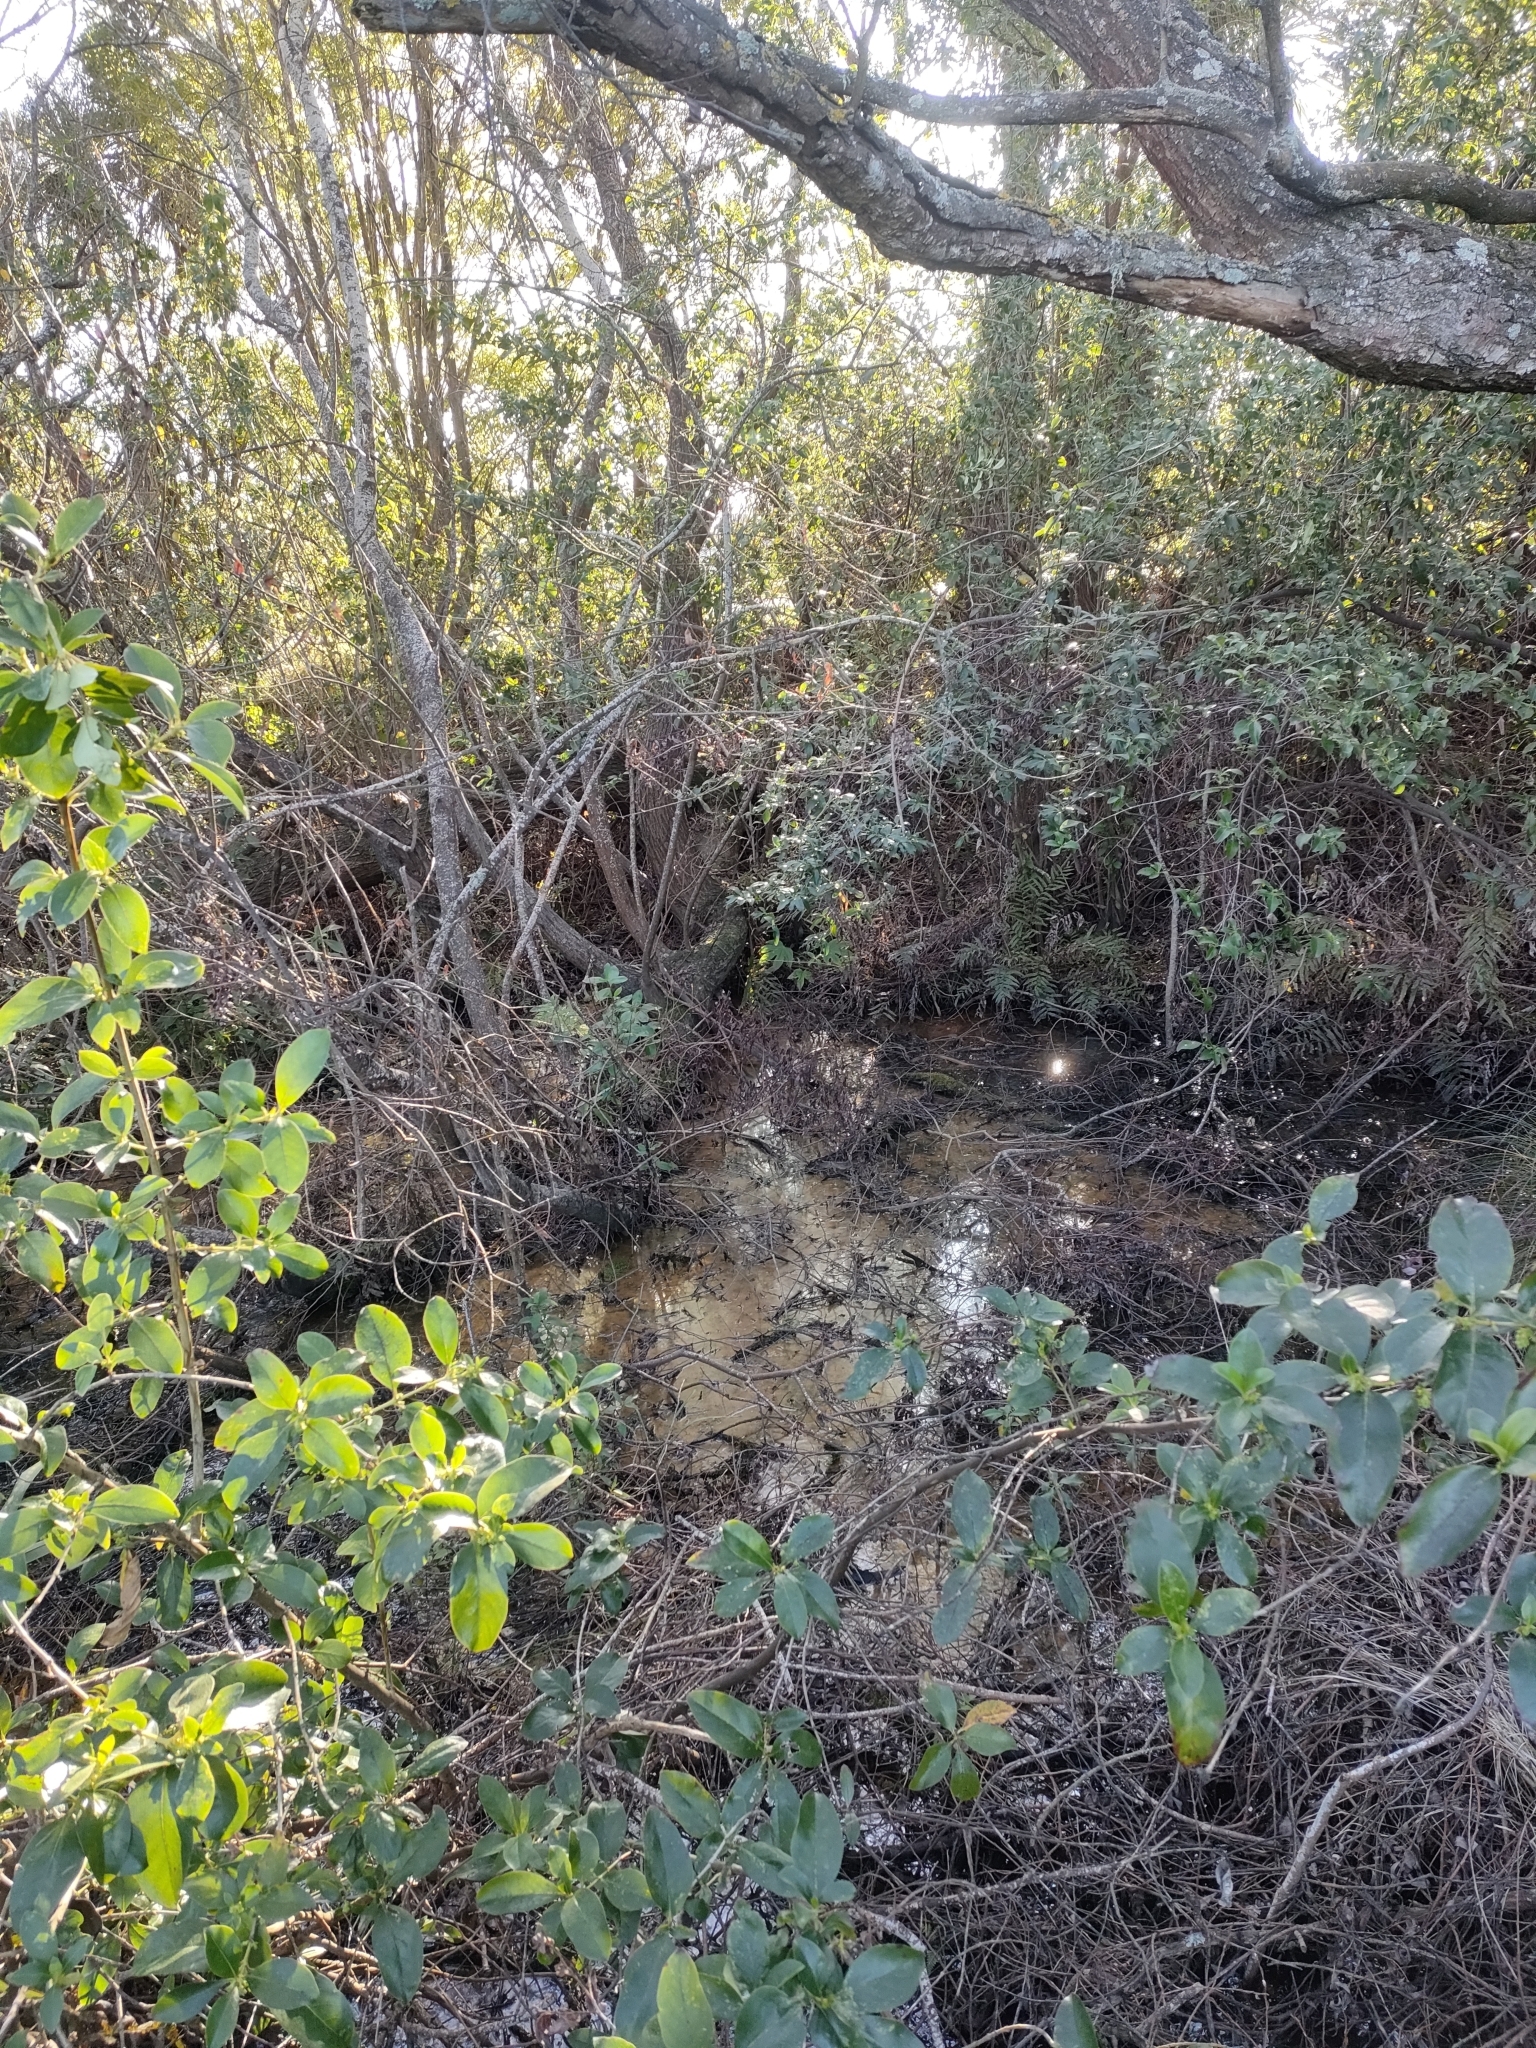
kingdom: Plantae
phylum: Tracheophyta
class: Magnoliopsida
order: Apiales
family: Araliaceae
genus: Fatsia
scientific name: Fatsia japonica
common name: Fatsia
